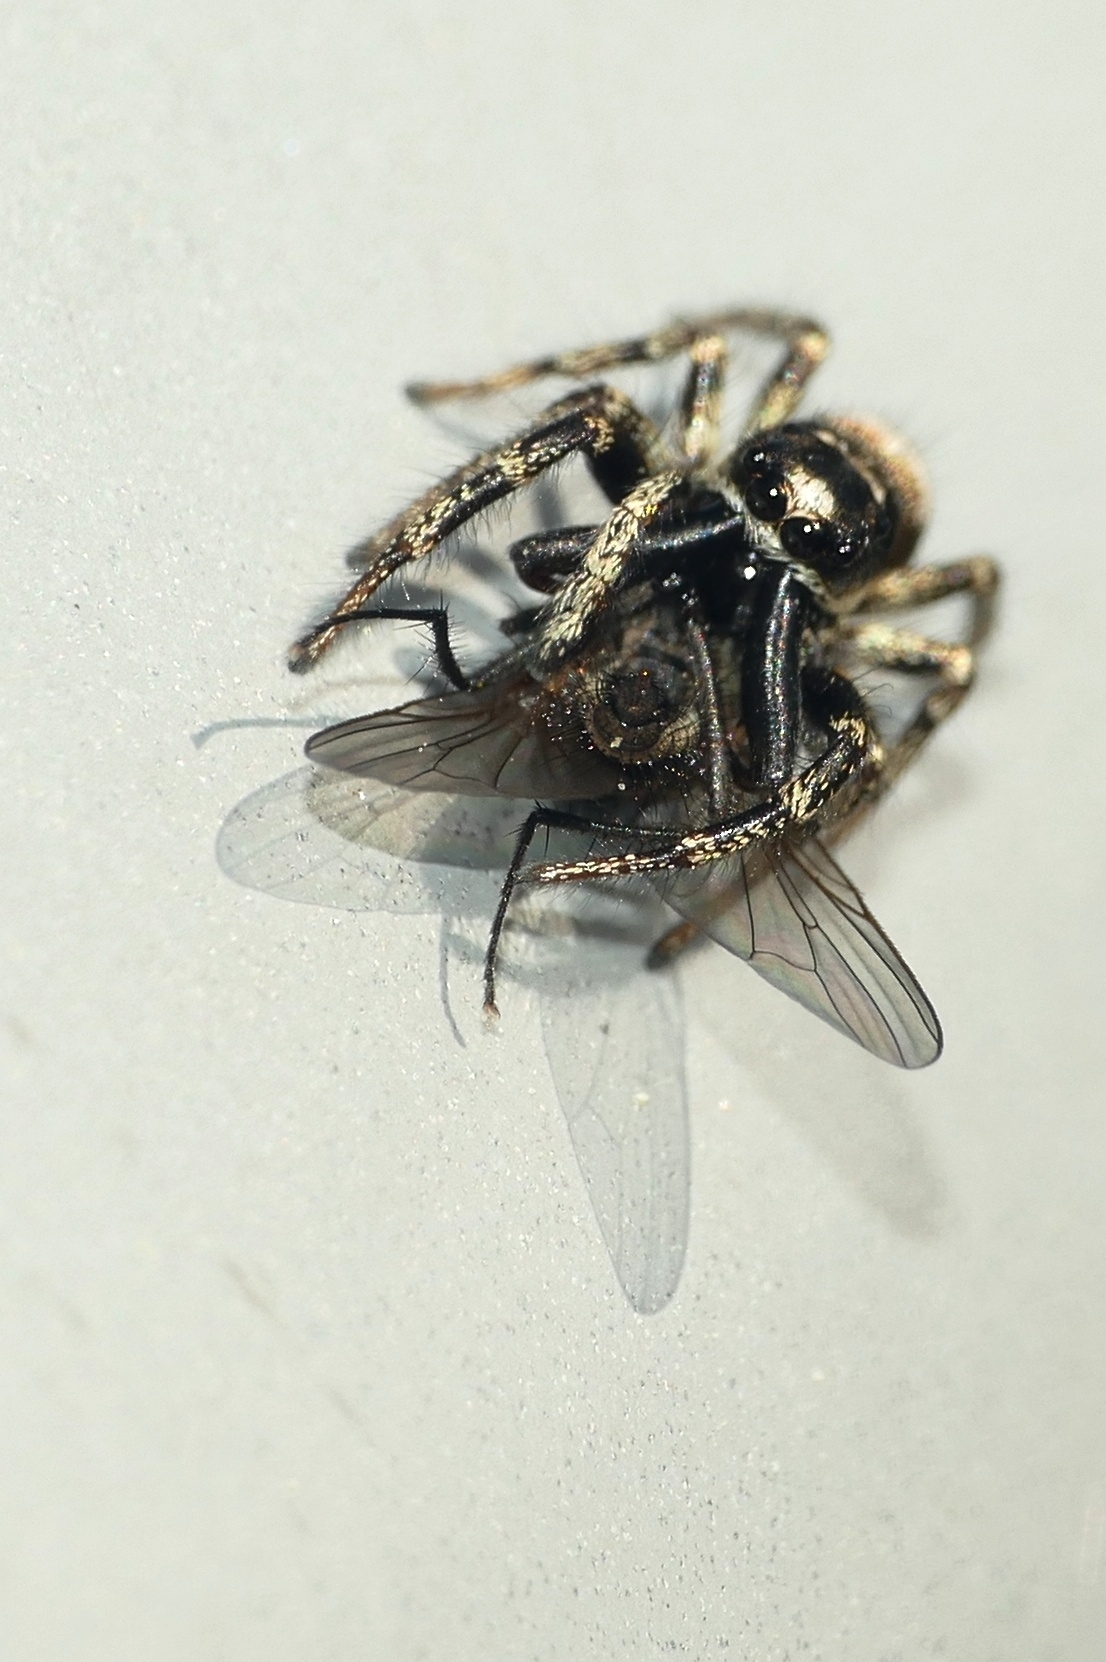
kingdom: Animalia
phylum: Arthropoda
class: Arachnida
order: Araneae
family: Salticidae
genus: Salticus
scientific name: Salticus scenicus
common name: Zebra jumper
